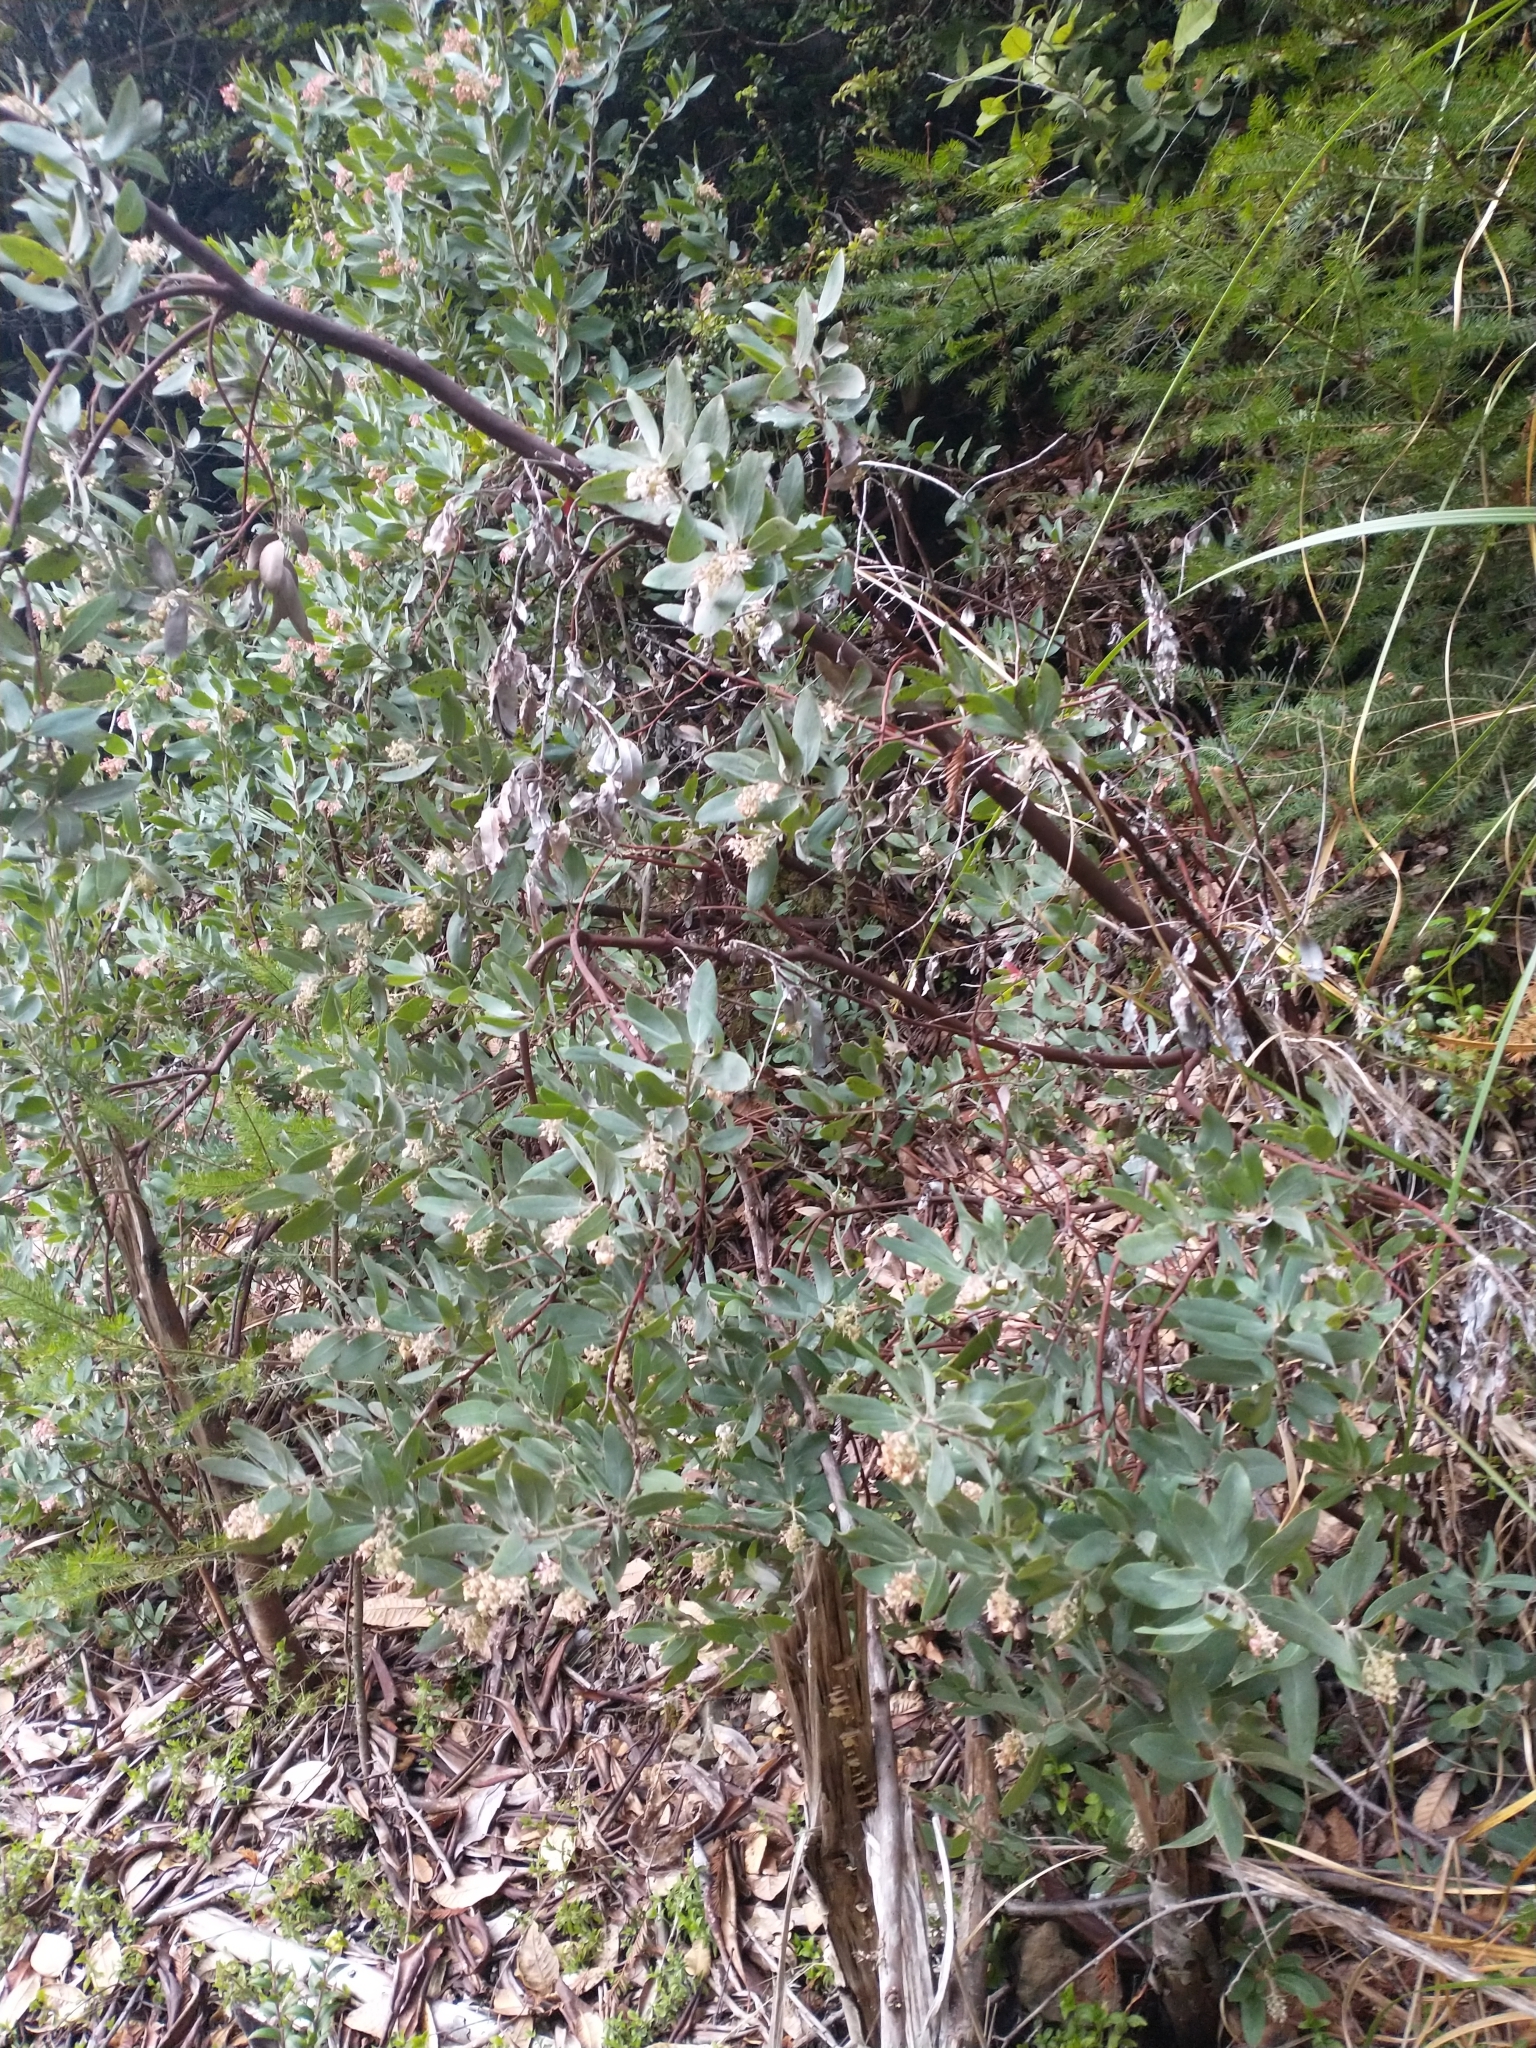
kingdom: Plantae
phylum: Tracheophyta
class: Magnoliopsida
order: Ericales
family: Ericaceae
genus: Arctostaphylos
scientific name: Arctostaphylos columbiana
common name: Bristly bearberry
